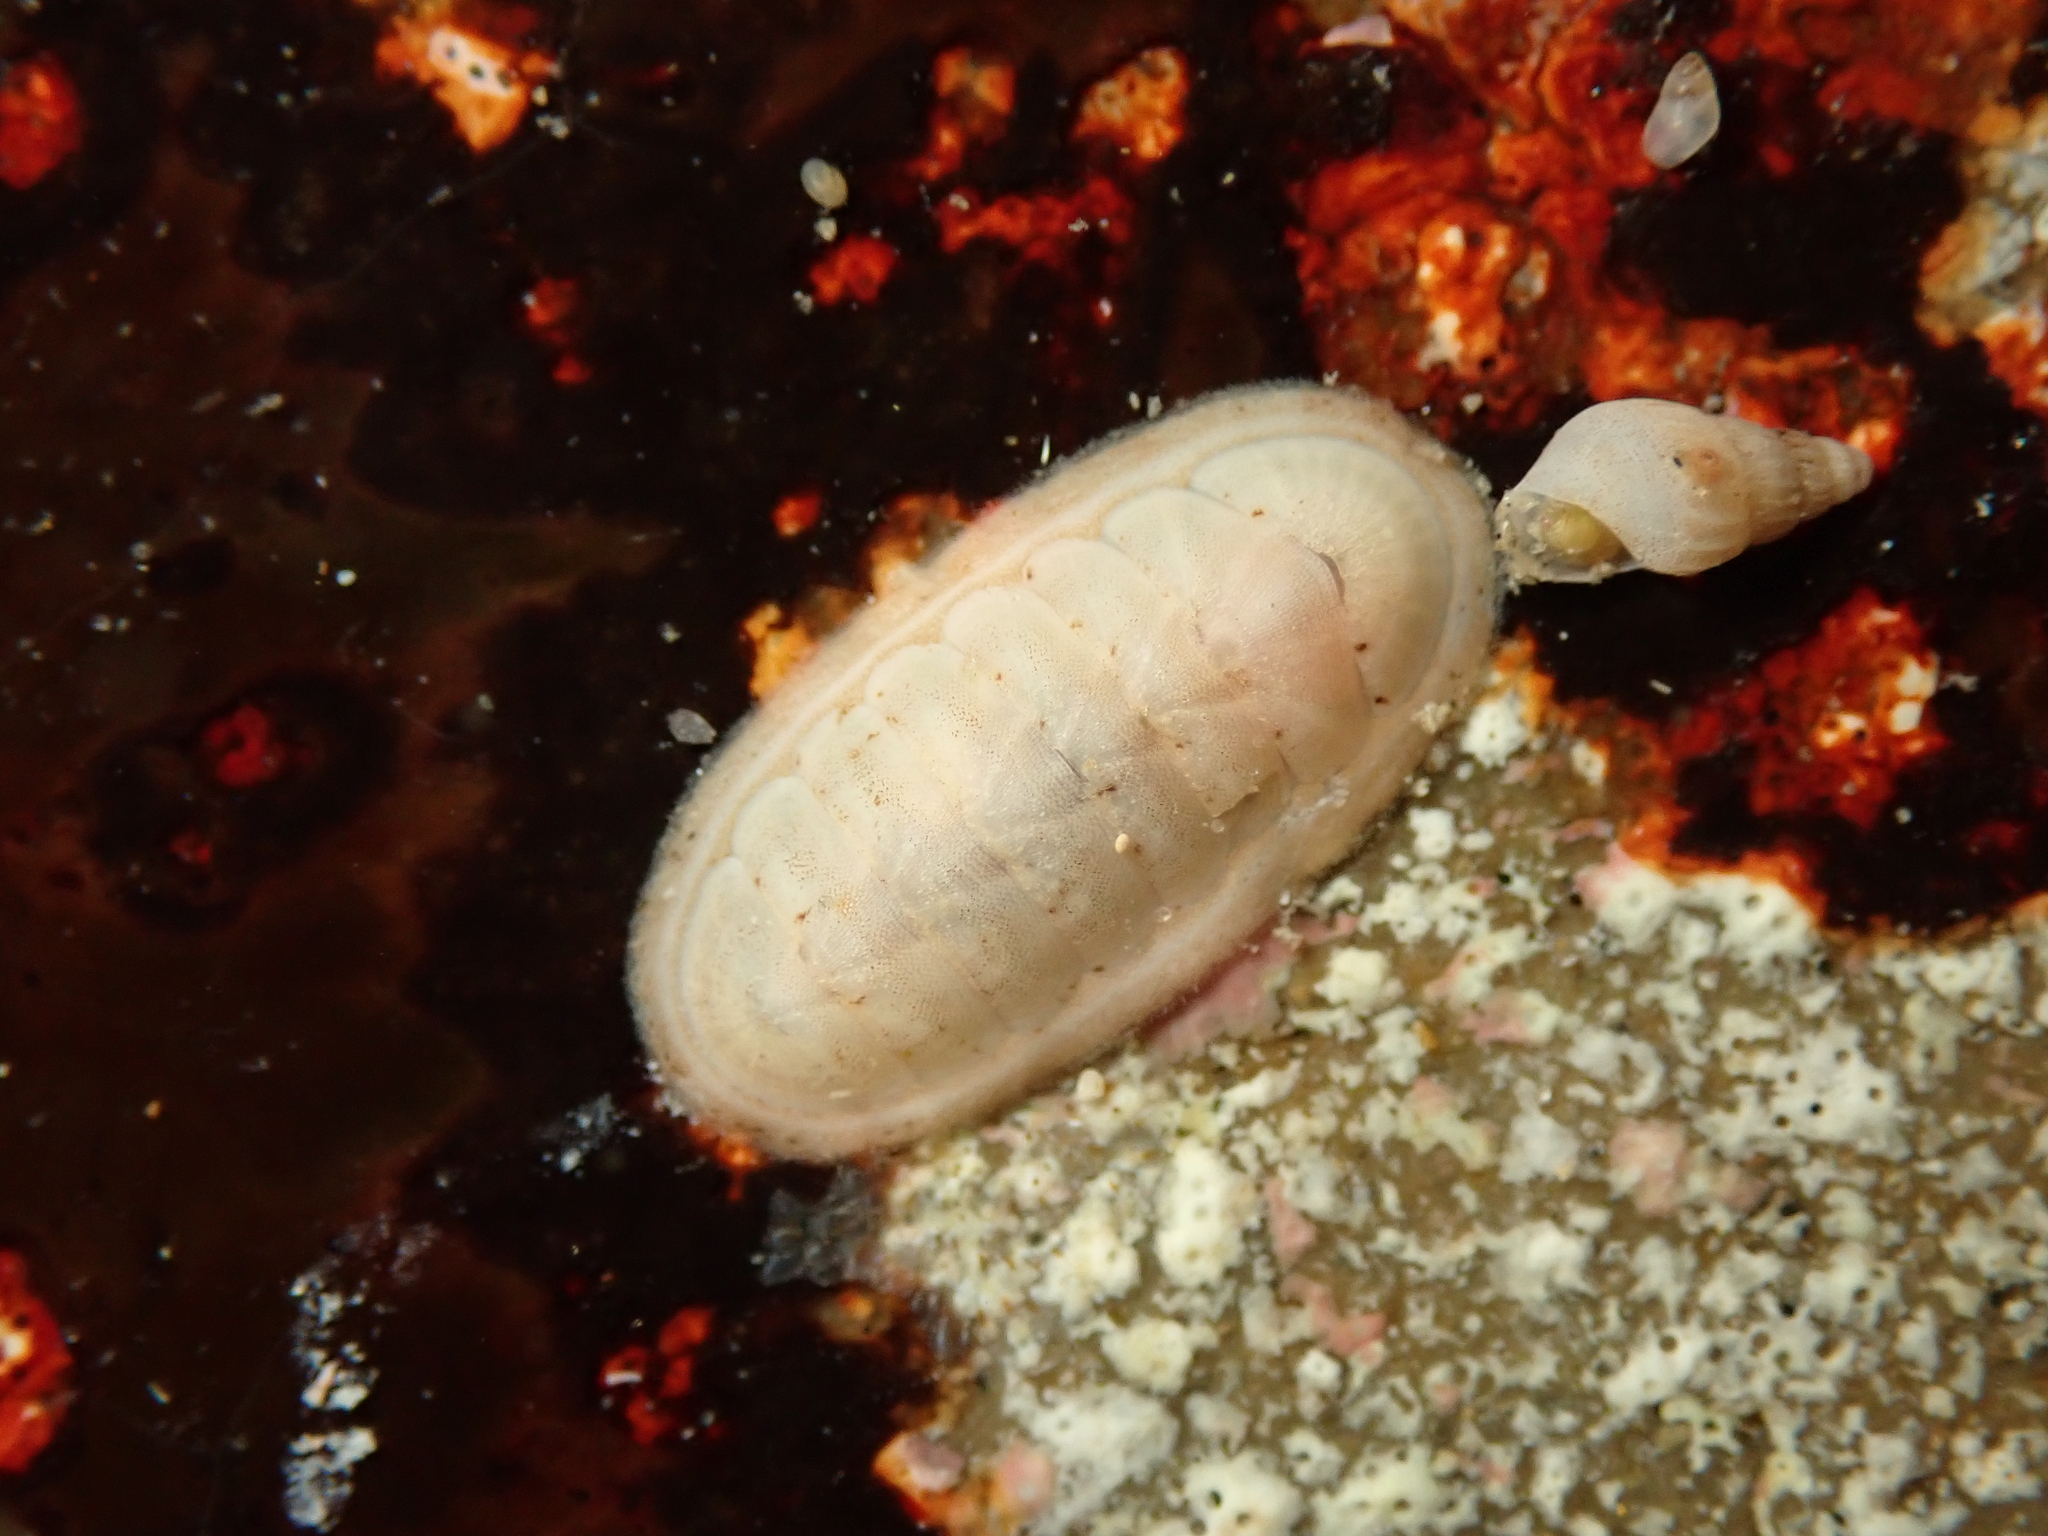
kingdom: Animalia
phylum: Mollusca
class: Polyplacophora
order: Chitonida
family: Ischnochitonidae
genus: Ischnochiton
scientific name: Ischnochiton circumvallatus
